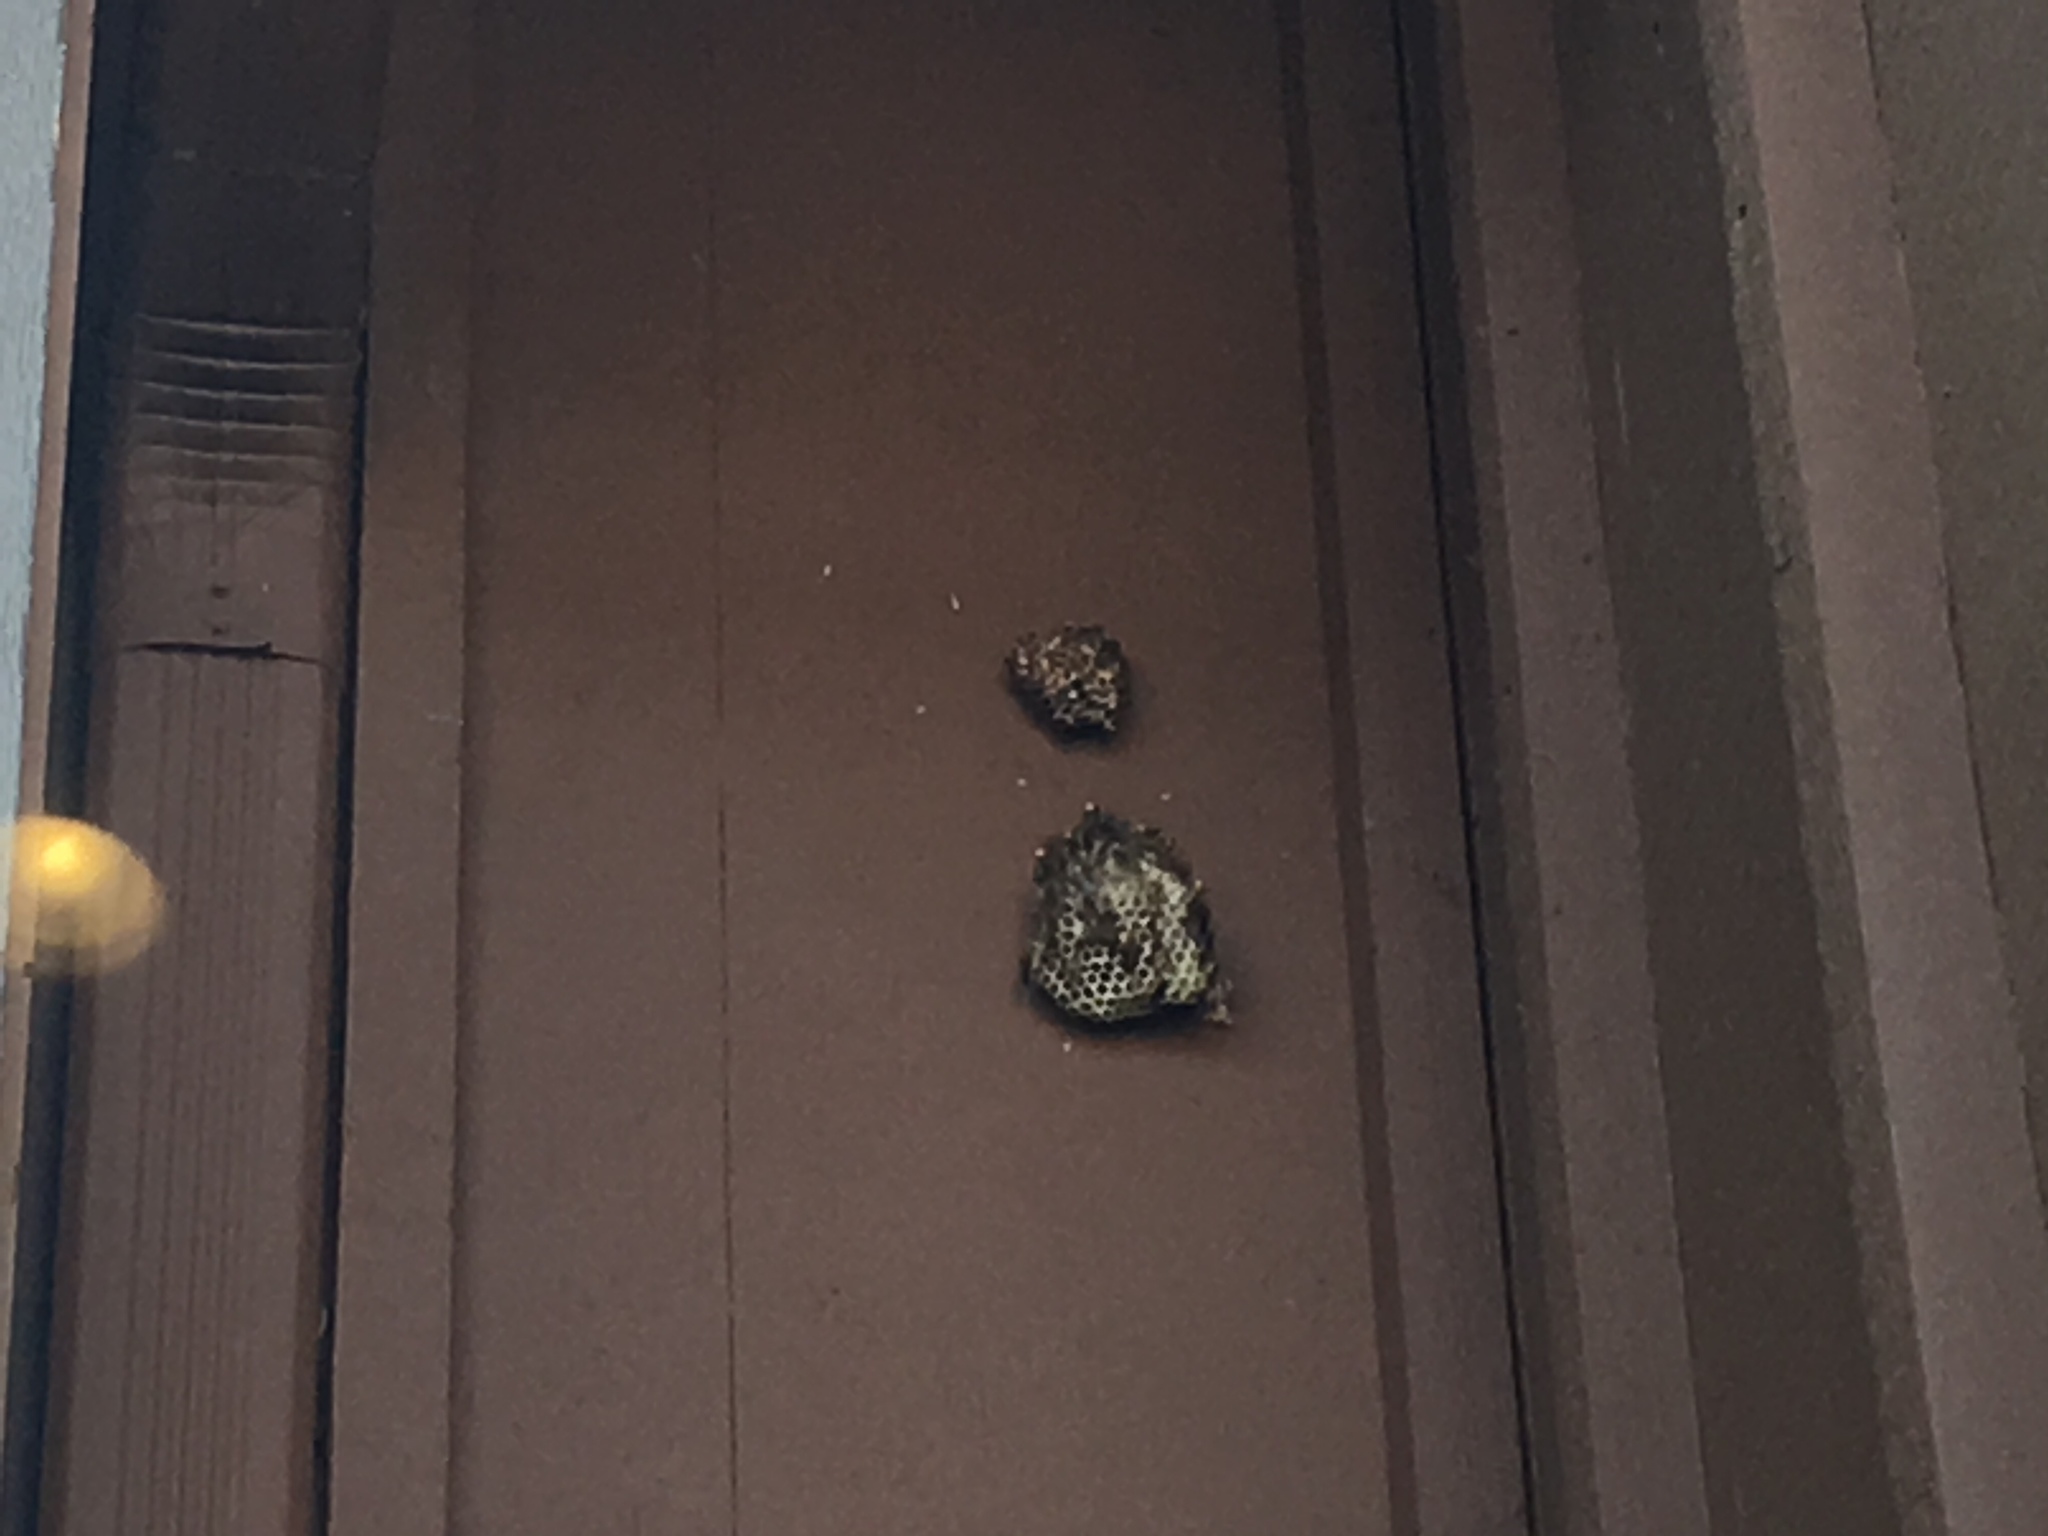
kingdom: Animalia
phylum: Arthropoda
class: Insecta
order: Hymenoptera
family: Eumenidae
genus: Polistes
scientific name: Polistes
